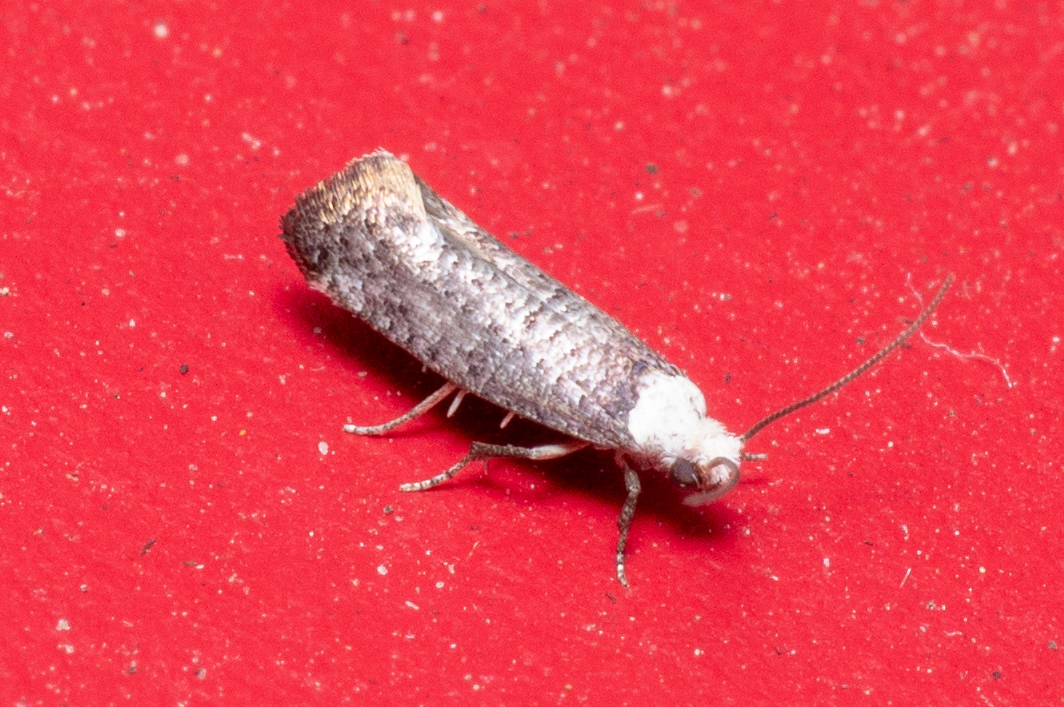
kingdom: Animalia
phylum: Arthropoda
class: Insecta
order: Lepidoptera
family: Yponomeutidae
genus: Swammerdamia
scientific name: Swammerdamia
